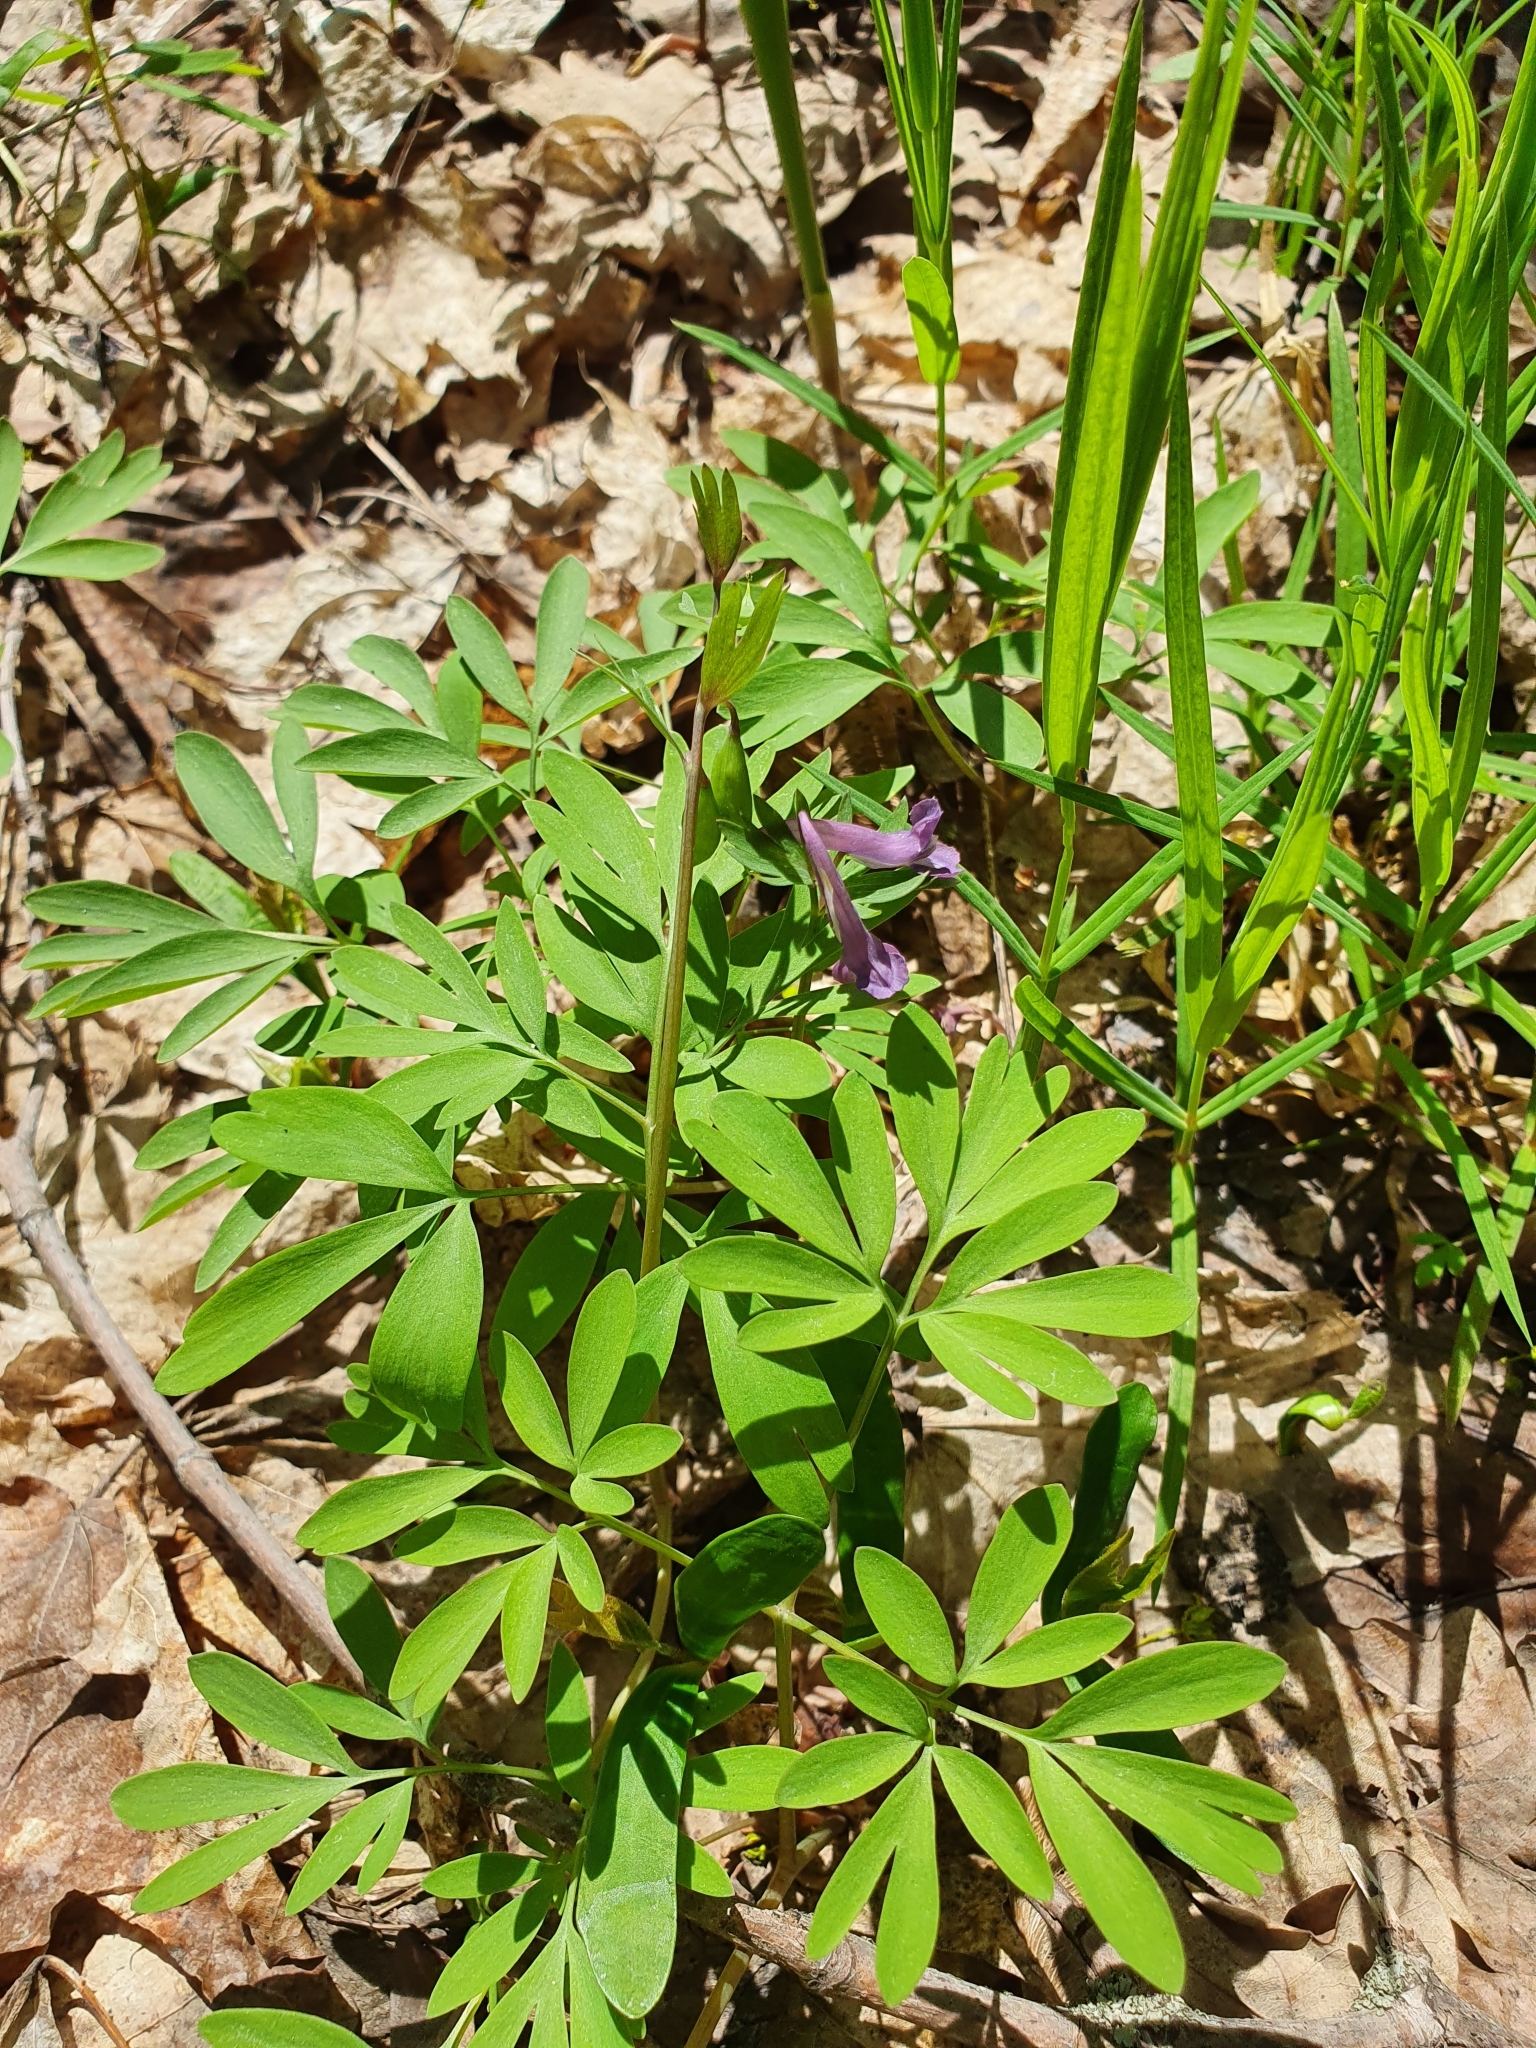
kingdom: Plantae
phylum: Tracheophyta
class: Magnoliopsida
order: Ranunculales
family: Papaveraceae
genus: Corydalis
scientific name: Corydalis solida
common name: Bird-in-a-bush
